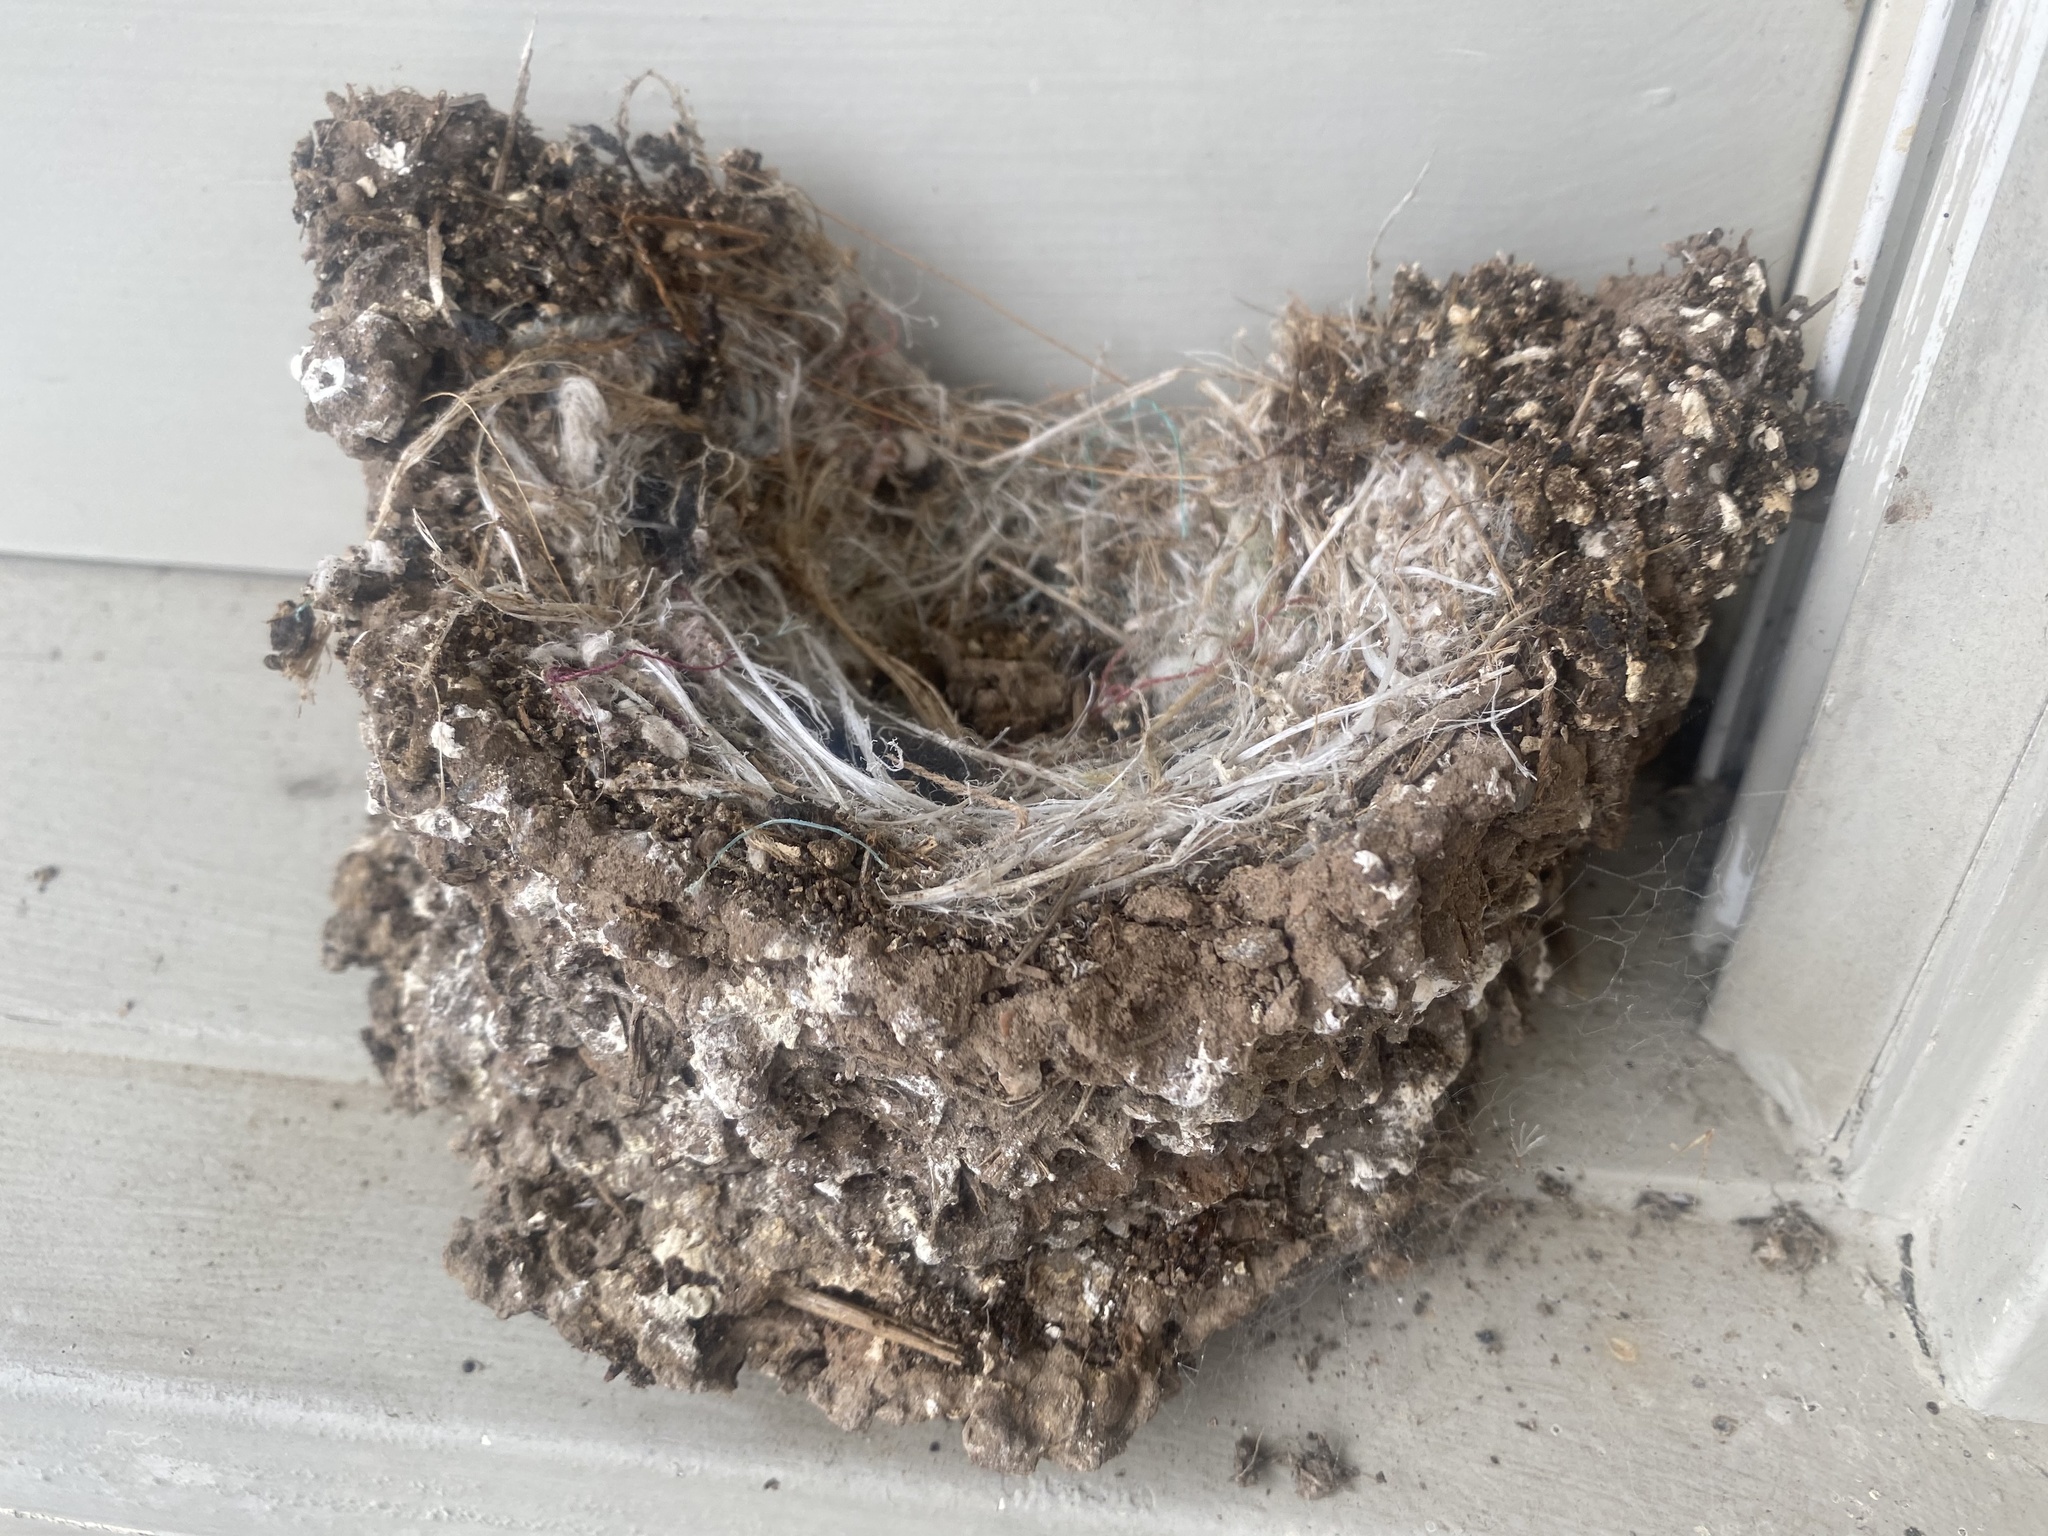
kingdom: Animalia
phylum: Chordata
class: Aves
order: Passeriformes
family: Hirundinidae
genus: Hirundo
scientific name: Hirundo rustica
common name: Barn swallow
